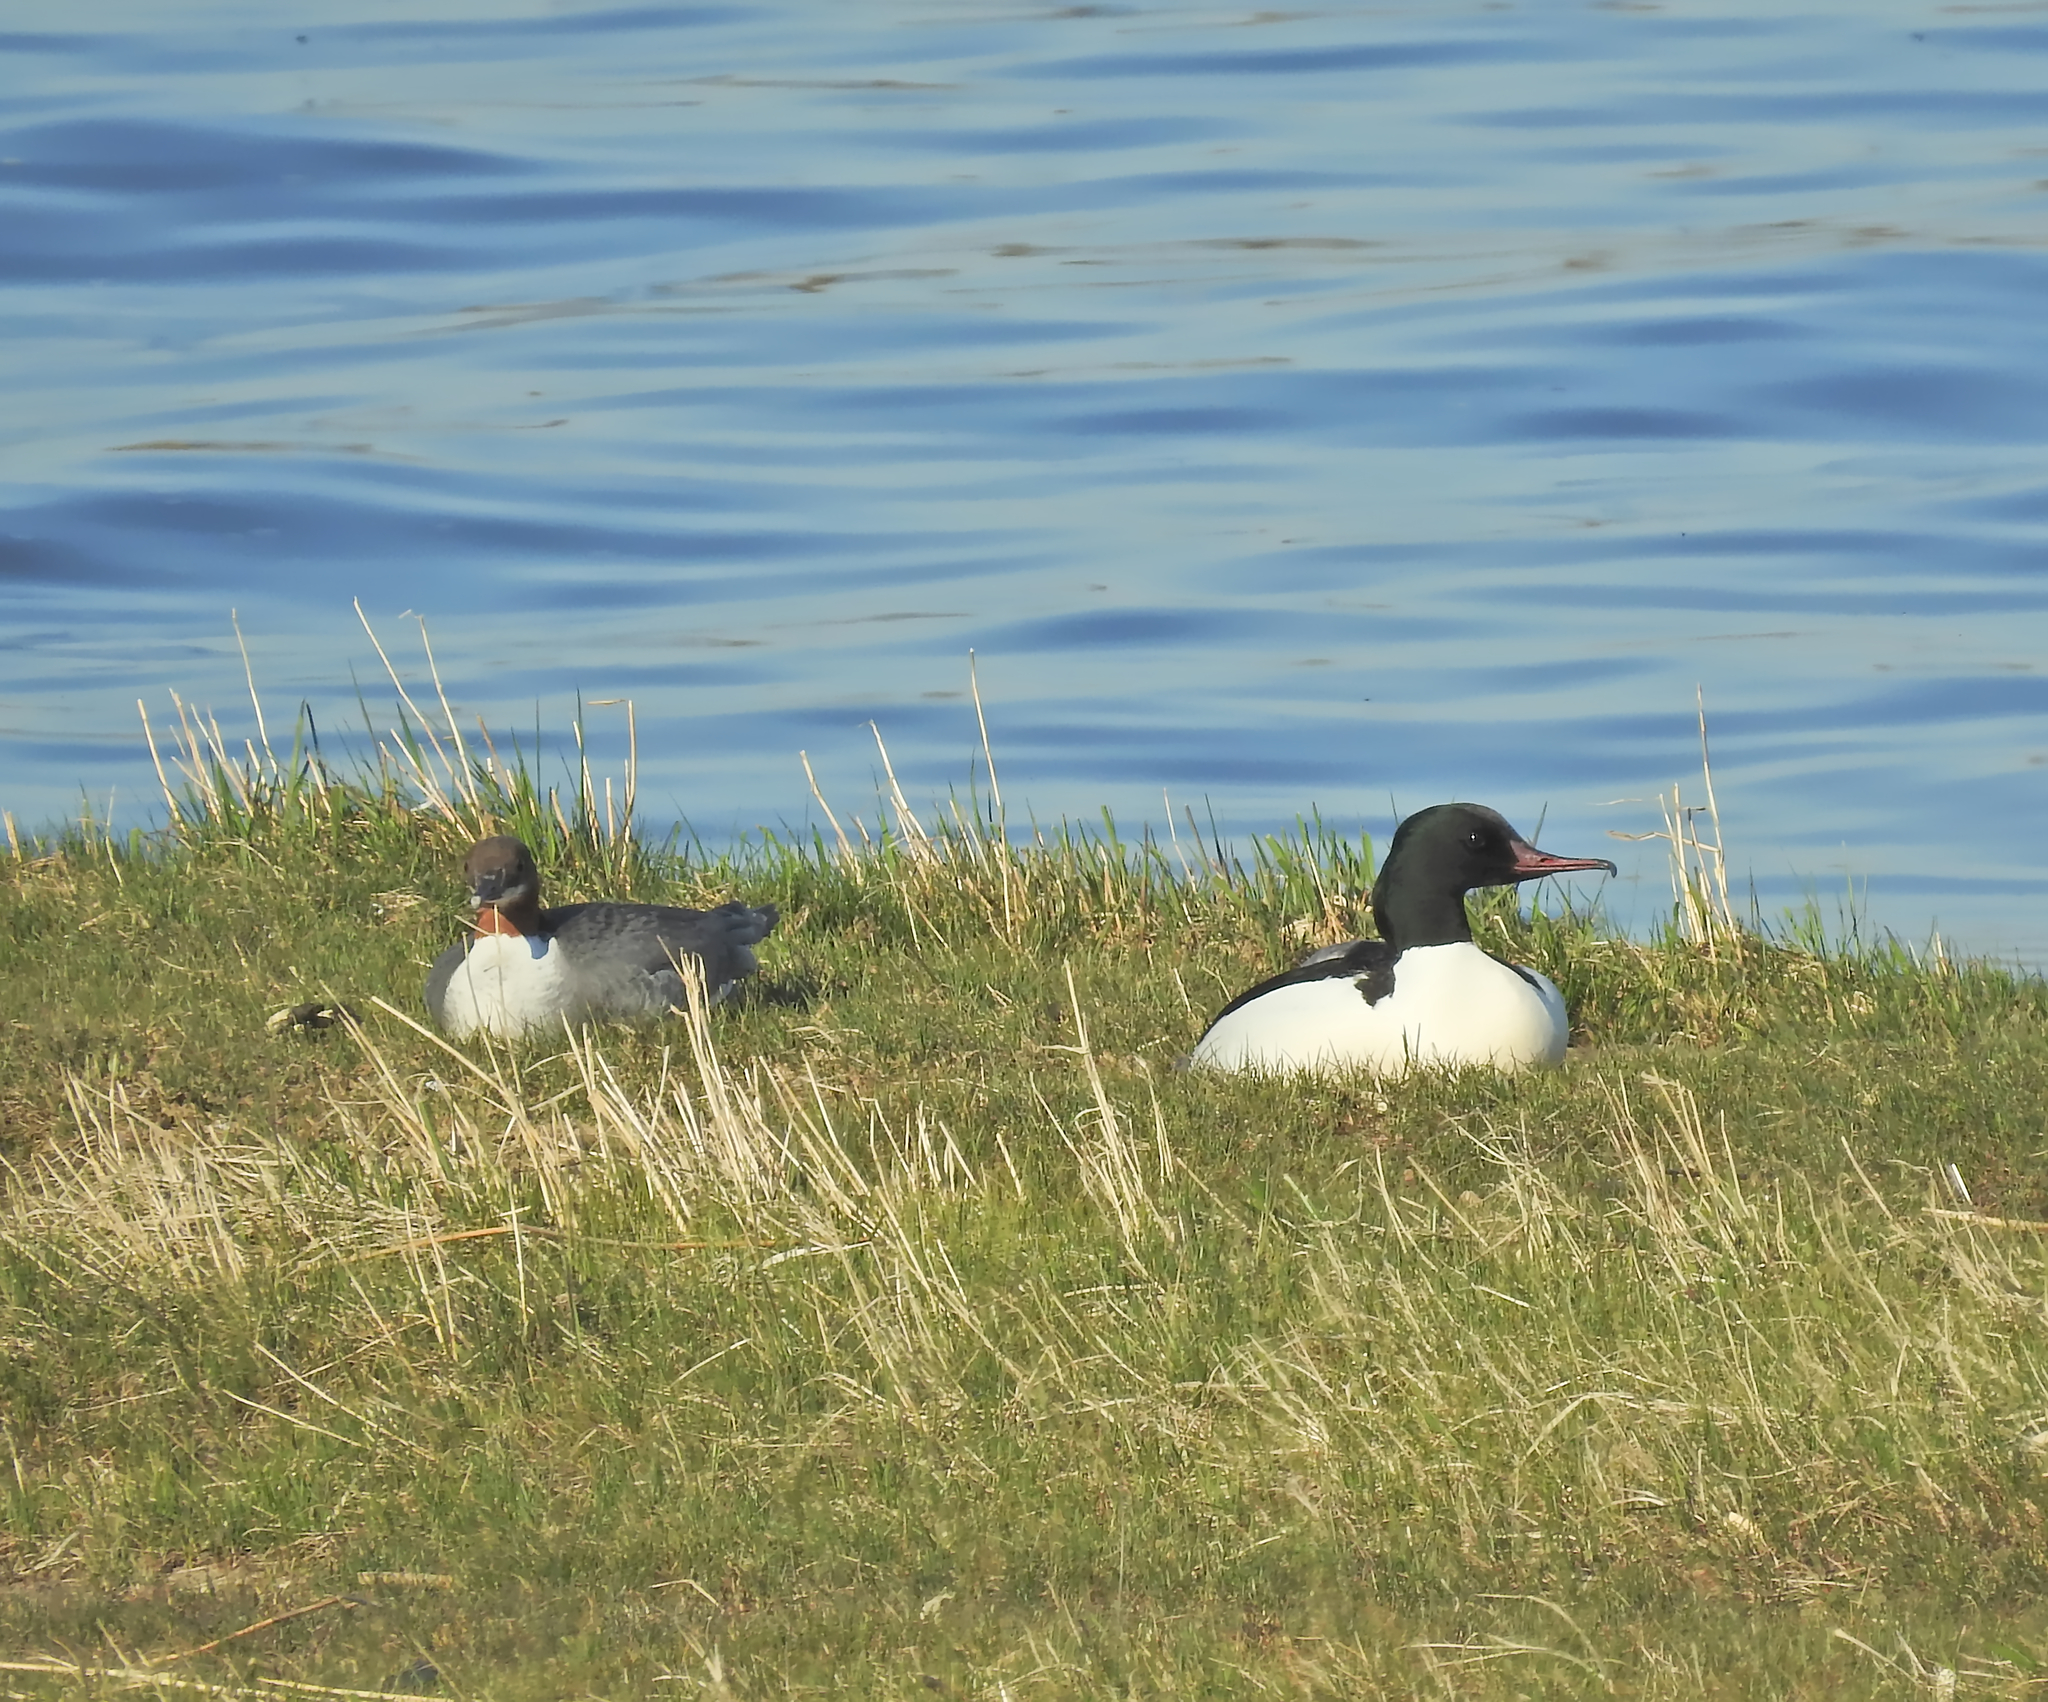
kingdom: Animalia
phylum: Chordata
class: Aves
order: Anseriformes
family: Anatidae
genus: Mergus
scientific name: Mergus merganser
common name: Common merganser
